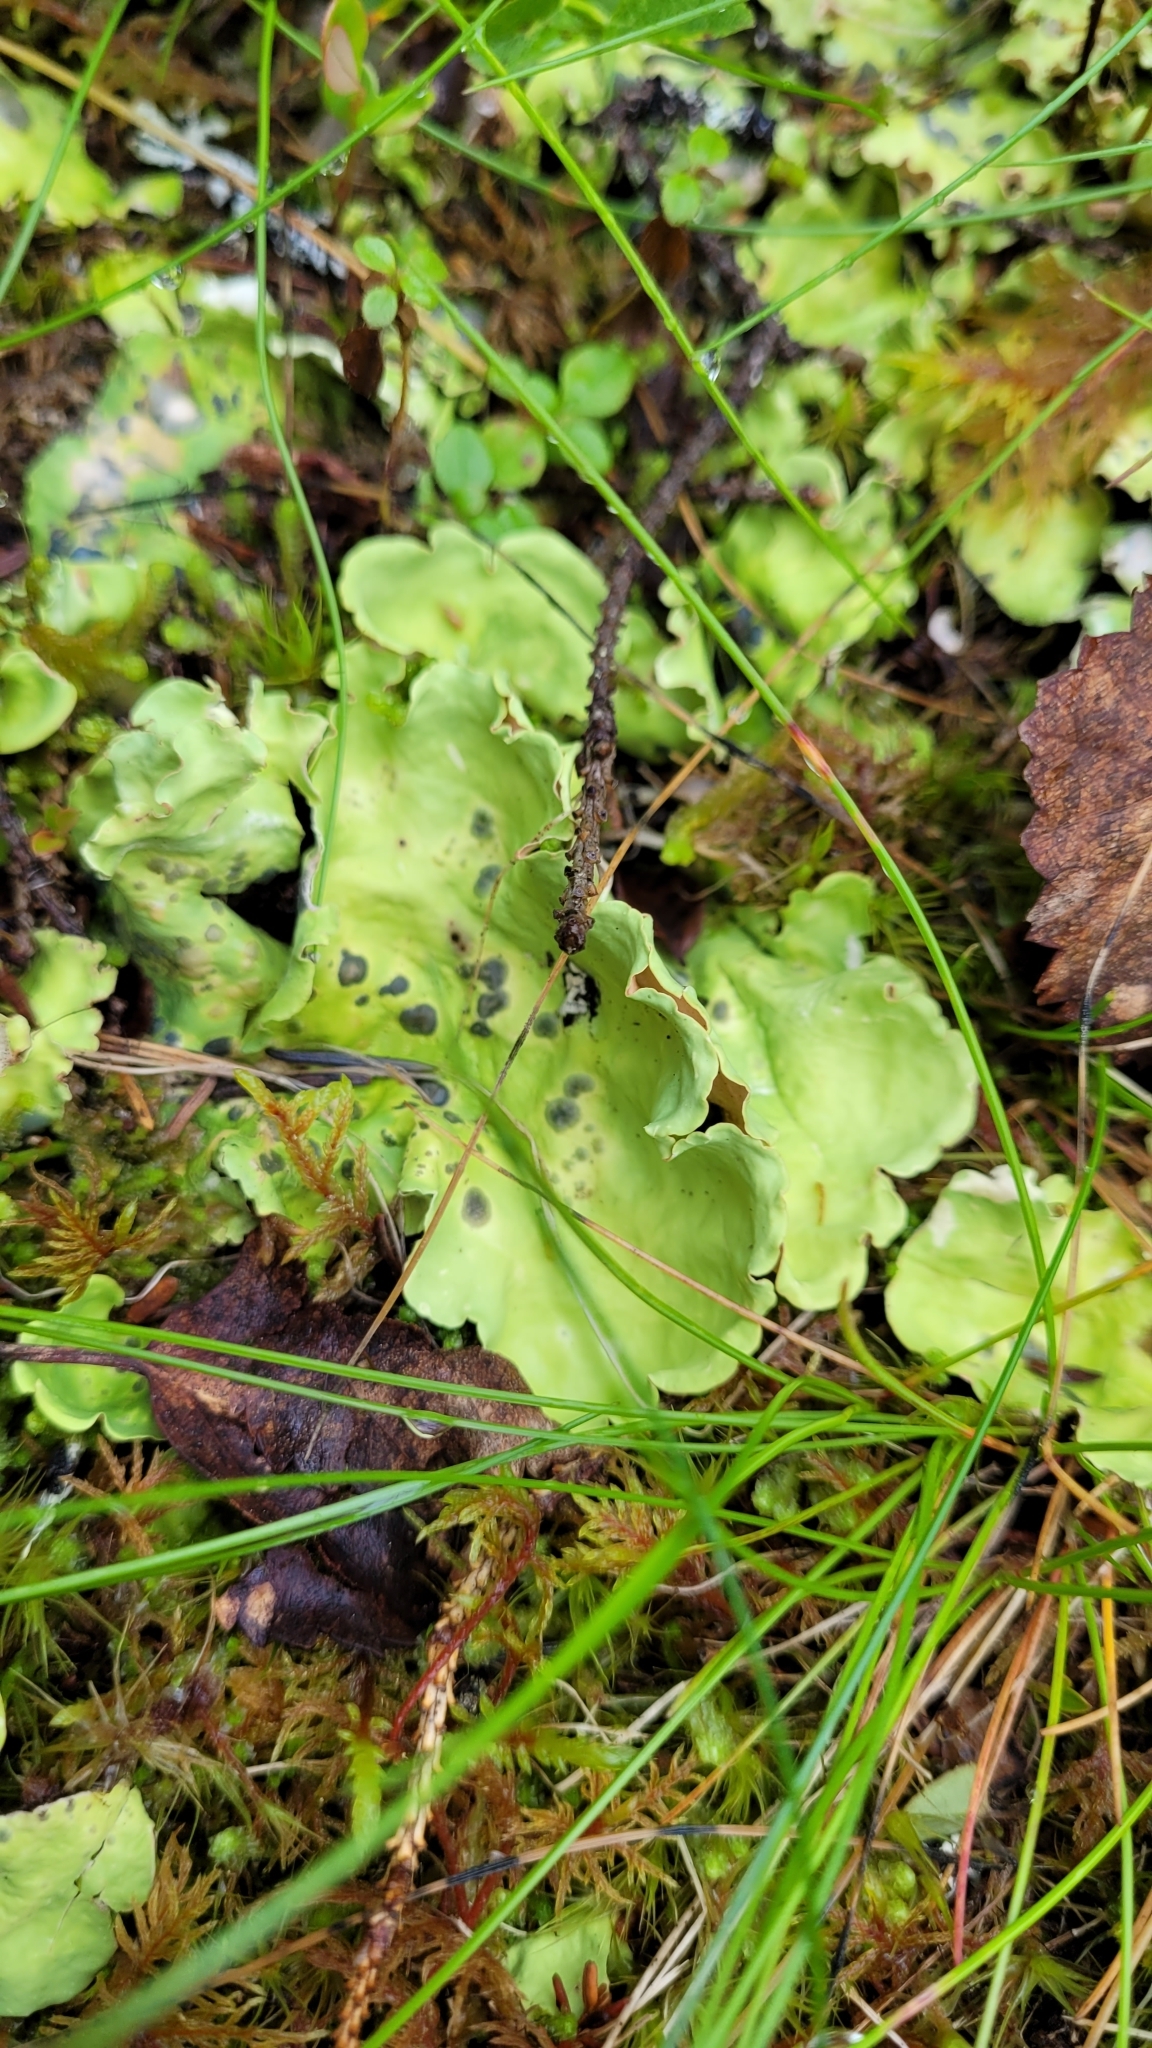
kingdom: Fungi
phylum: Ascomycota
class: Lecanoromycetes
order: Peltigerales
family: Nephromataceae
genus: Nephroma
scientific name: Nephroma arcticum
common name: Arctic kidney-lichen
